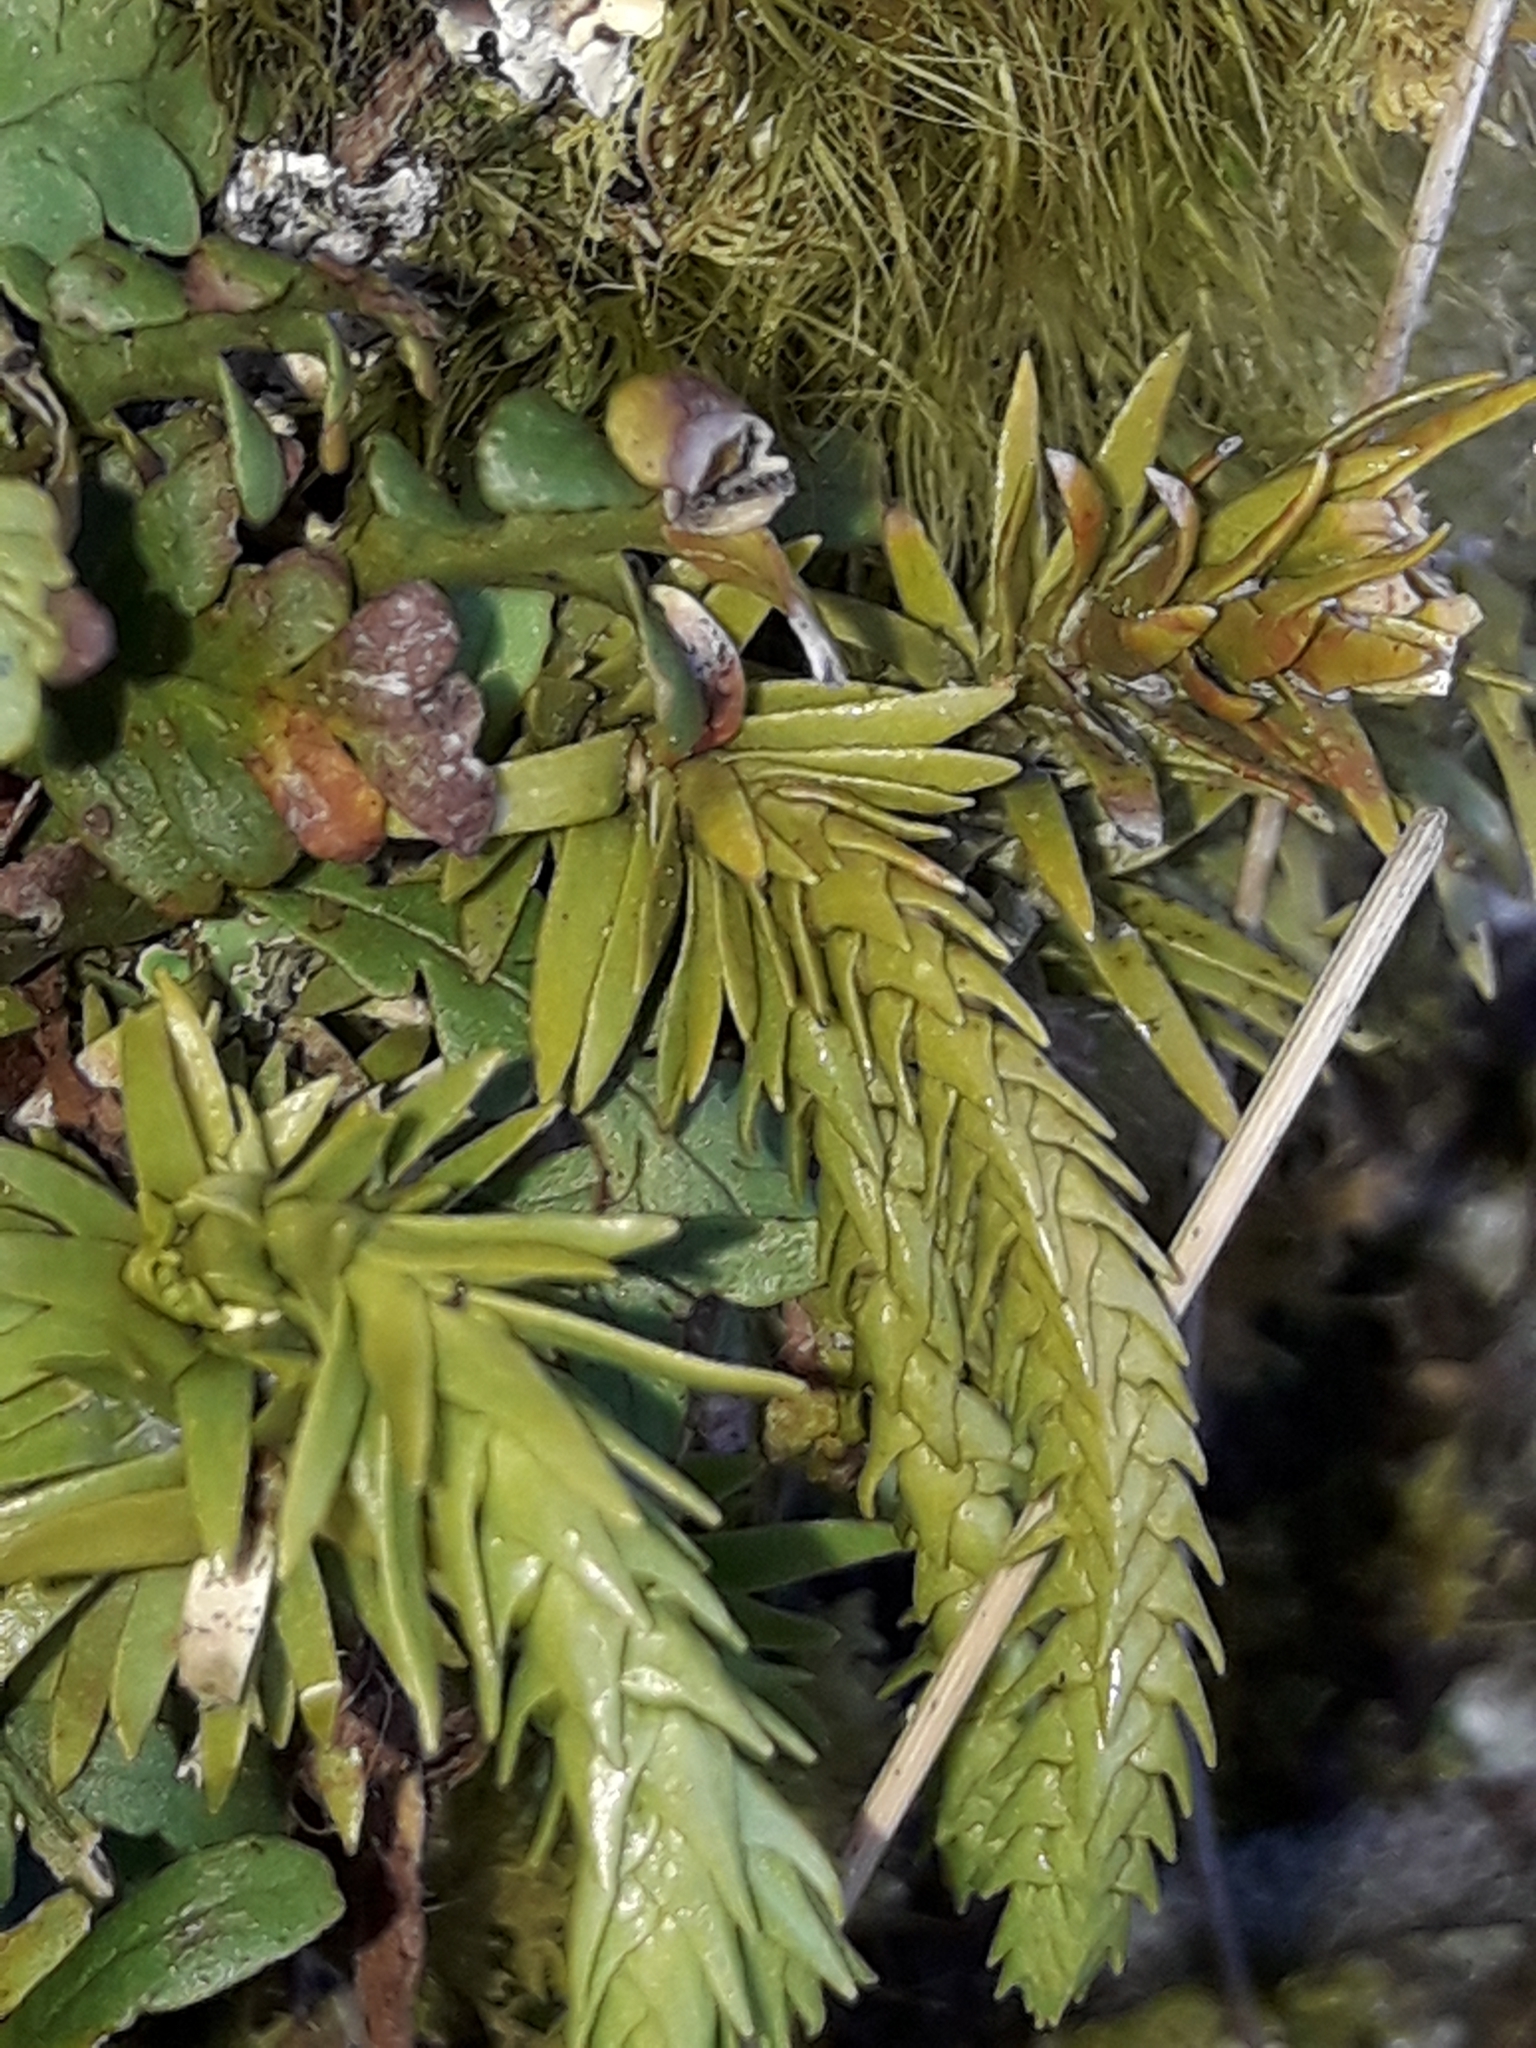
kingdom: Plantae
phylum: Tracheophyta
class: Lycopodiopsida
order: Lycopodiales
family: Lycopodiaceae
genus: Phlegmariurus
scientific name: Phlegmariurus varius
